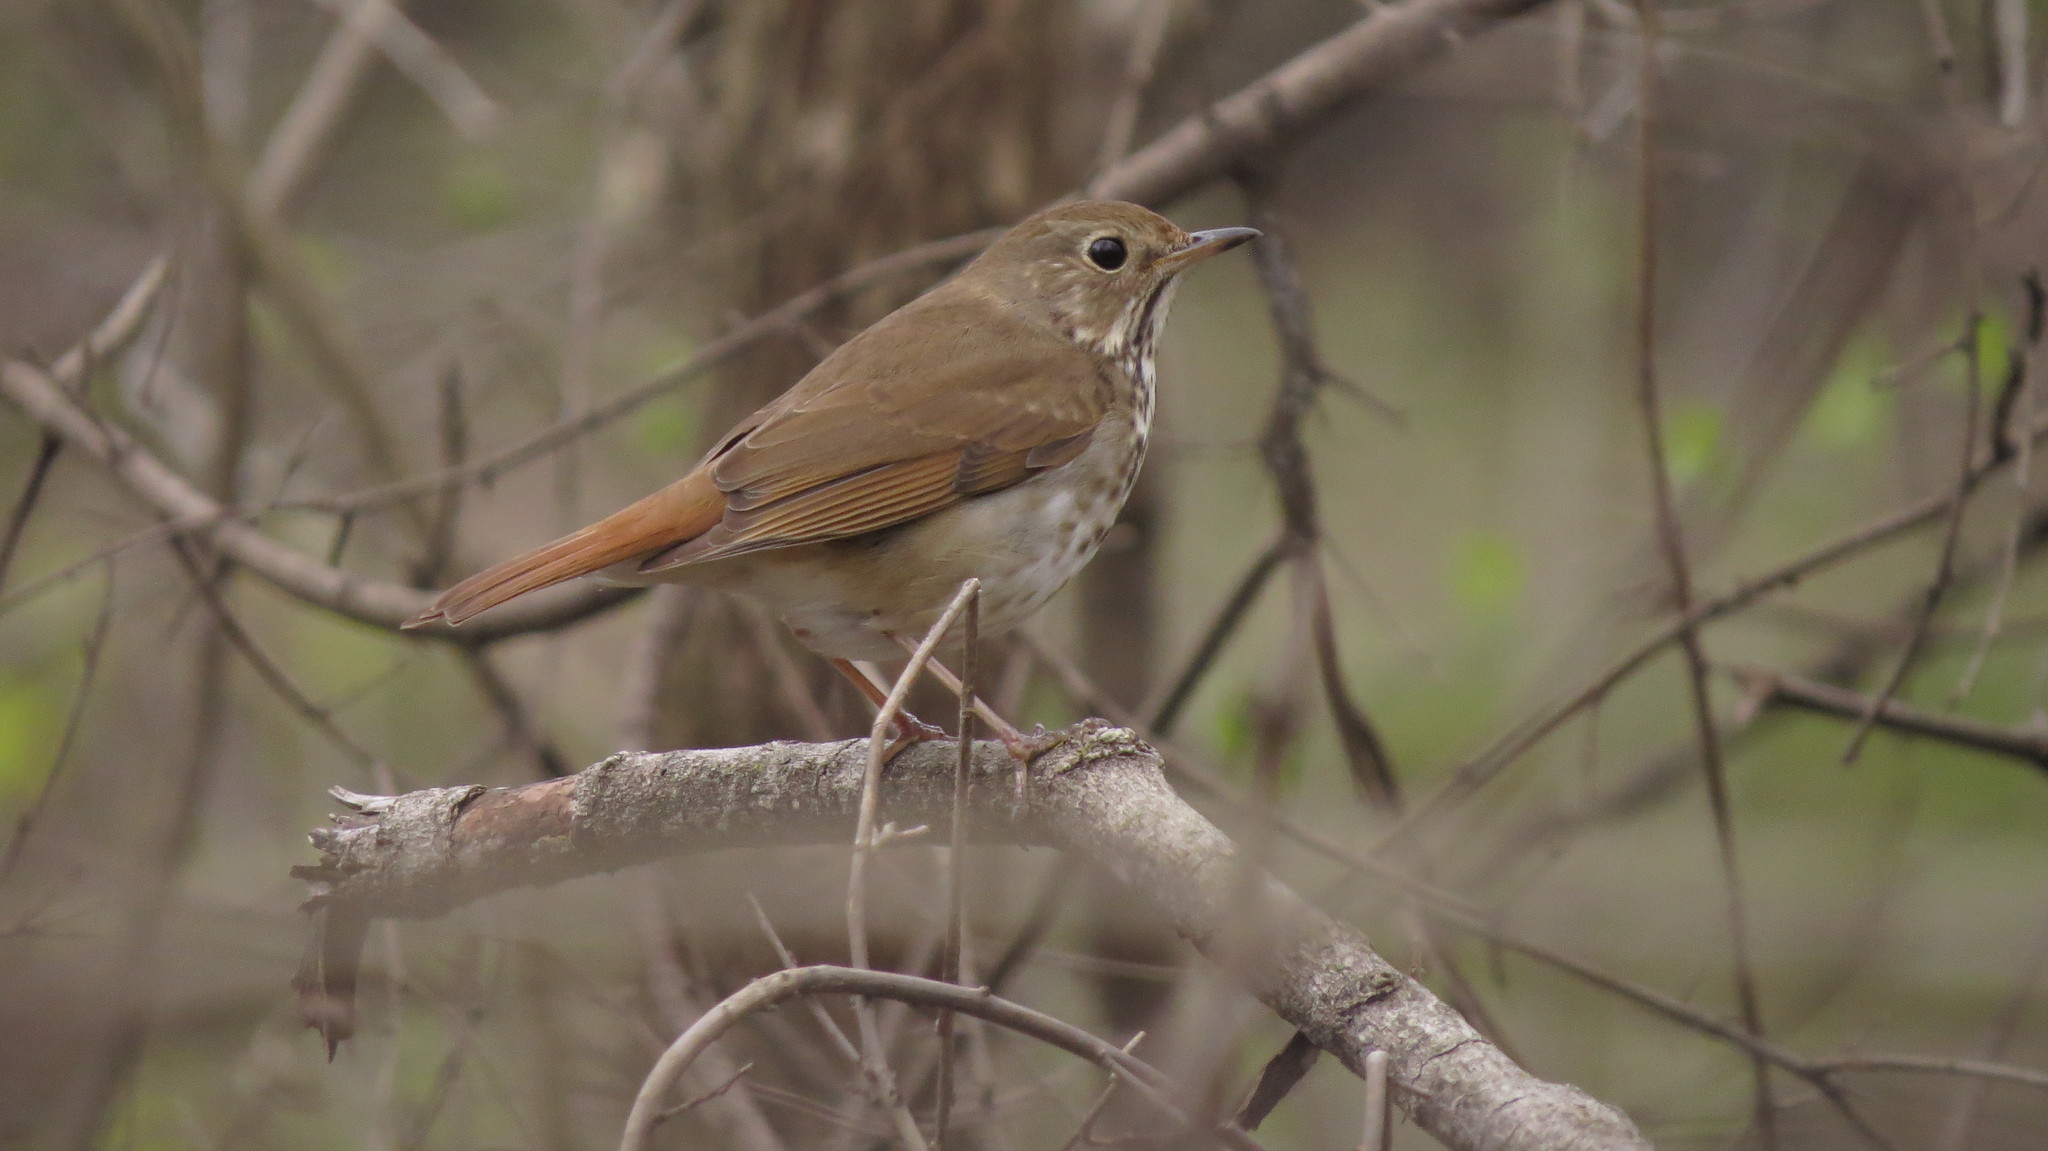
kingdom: Animalia
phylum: Chordata
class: Aves
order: Passeriformes
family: Turdidae
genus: Catharus
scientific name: Catharus guttatus
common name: Hermit thrush
